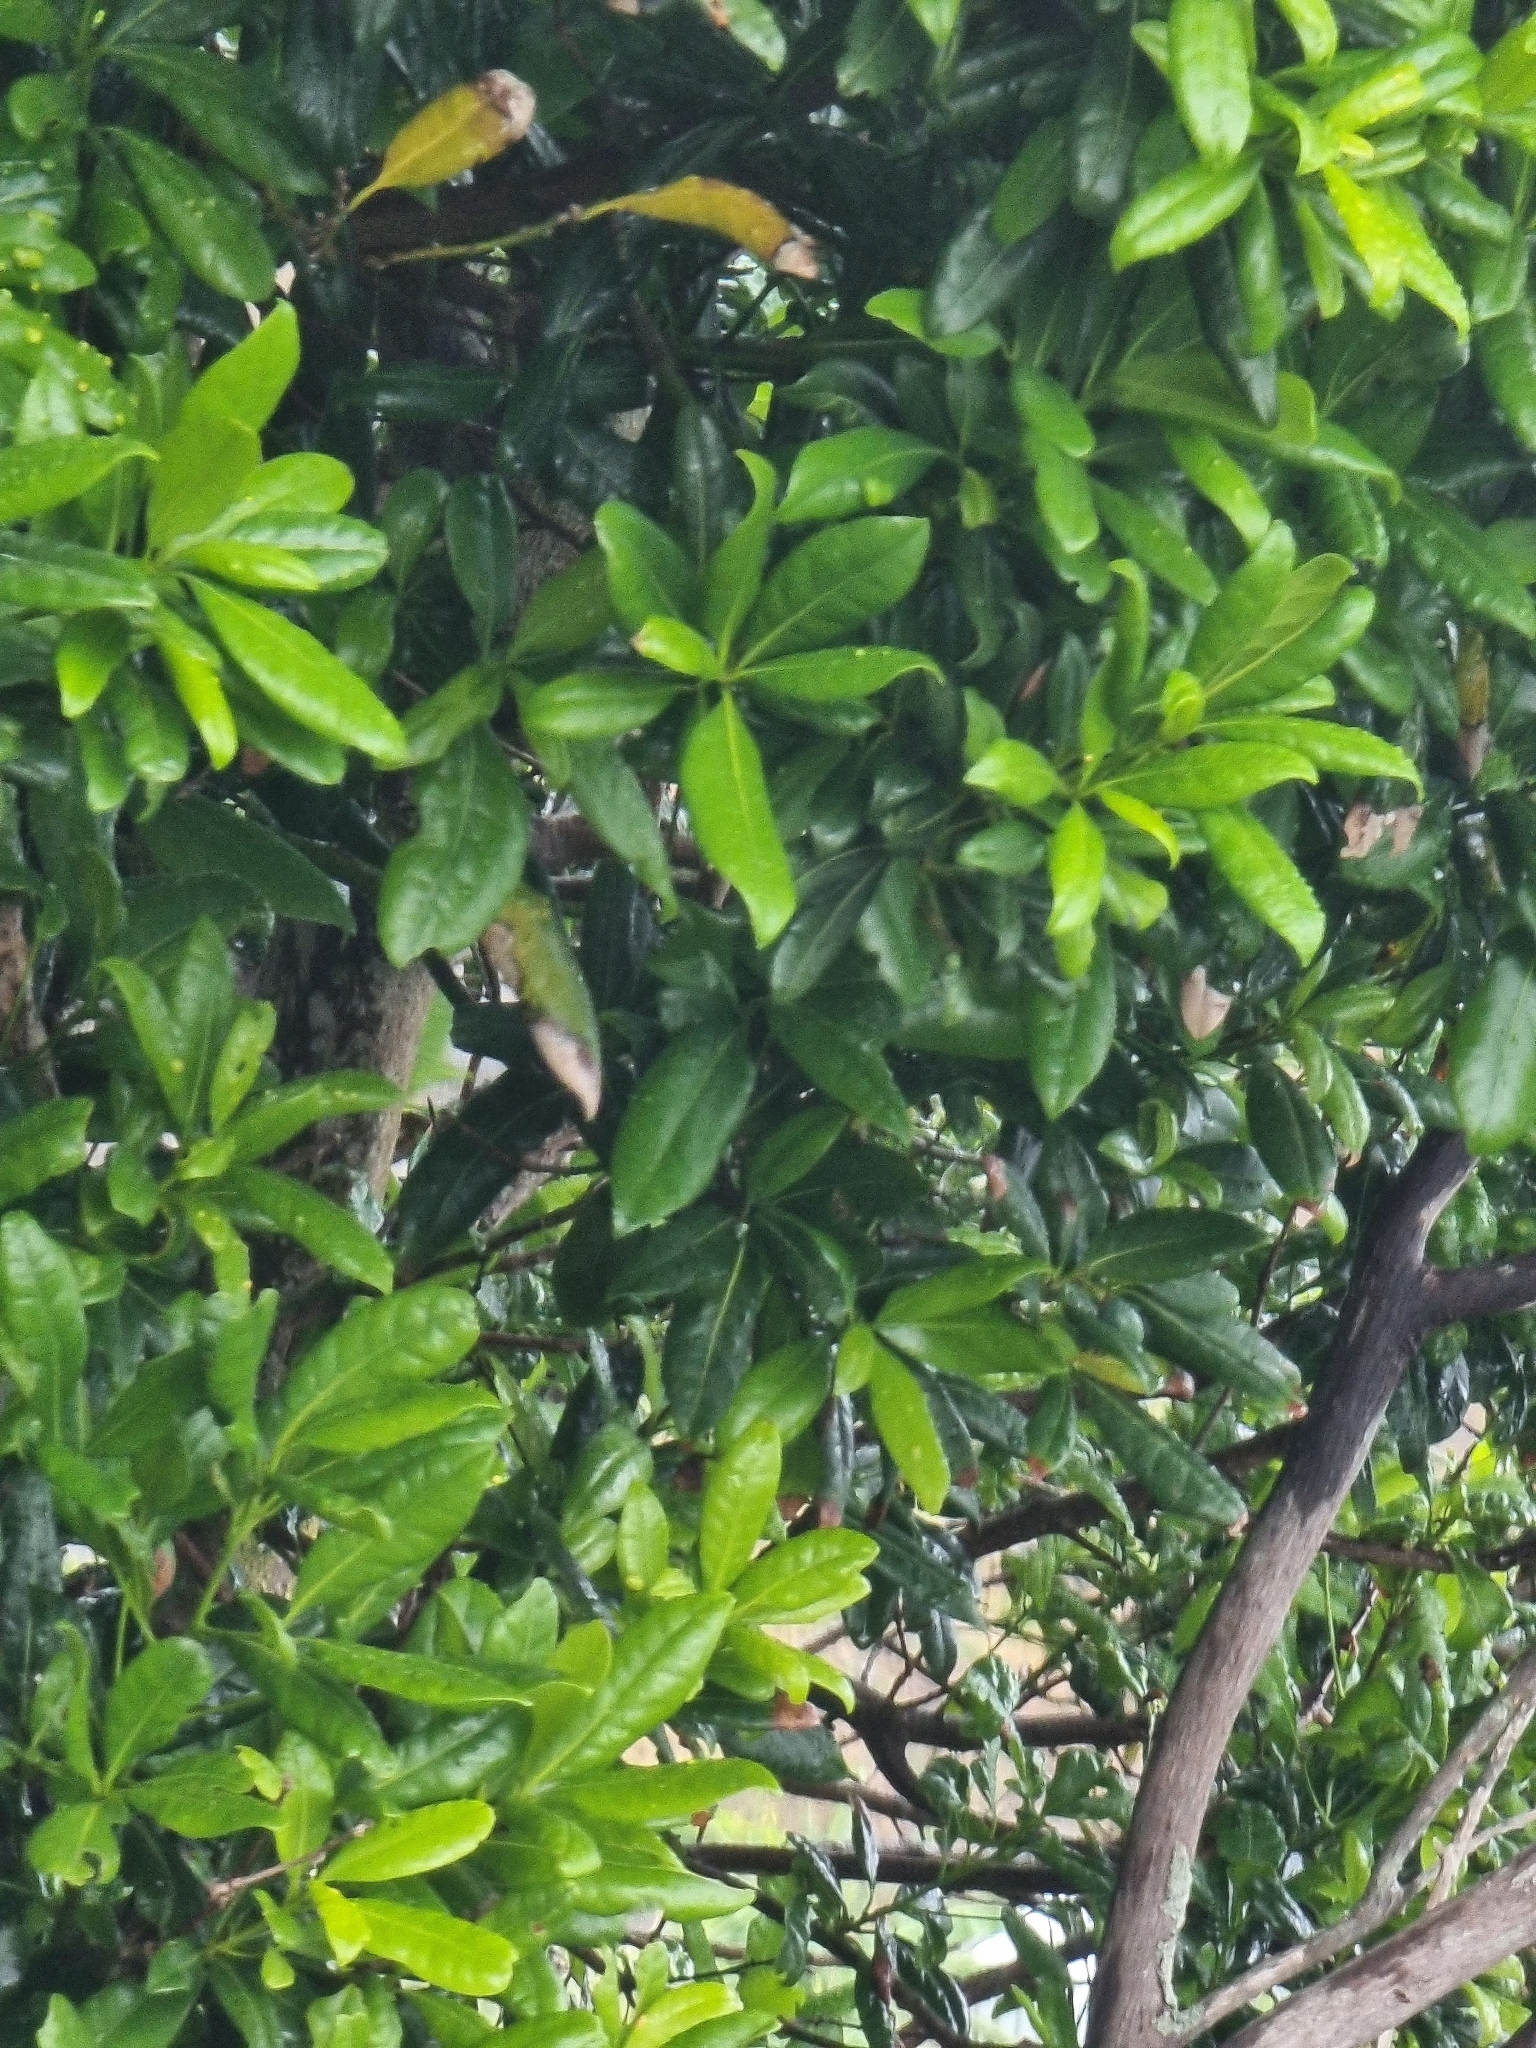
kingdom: Plantae
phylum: Tracheophyta
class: Magnoliopsida
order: Laurales
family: Lauraceae
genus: Apollonias
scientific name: Apollonias barbujana
